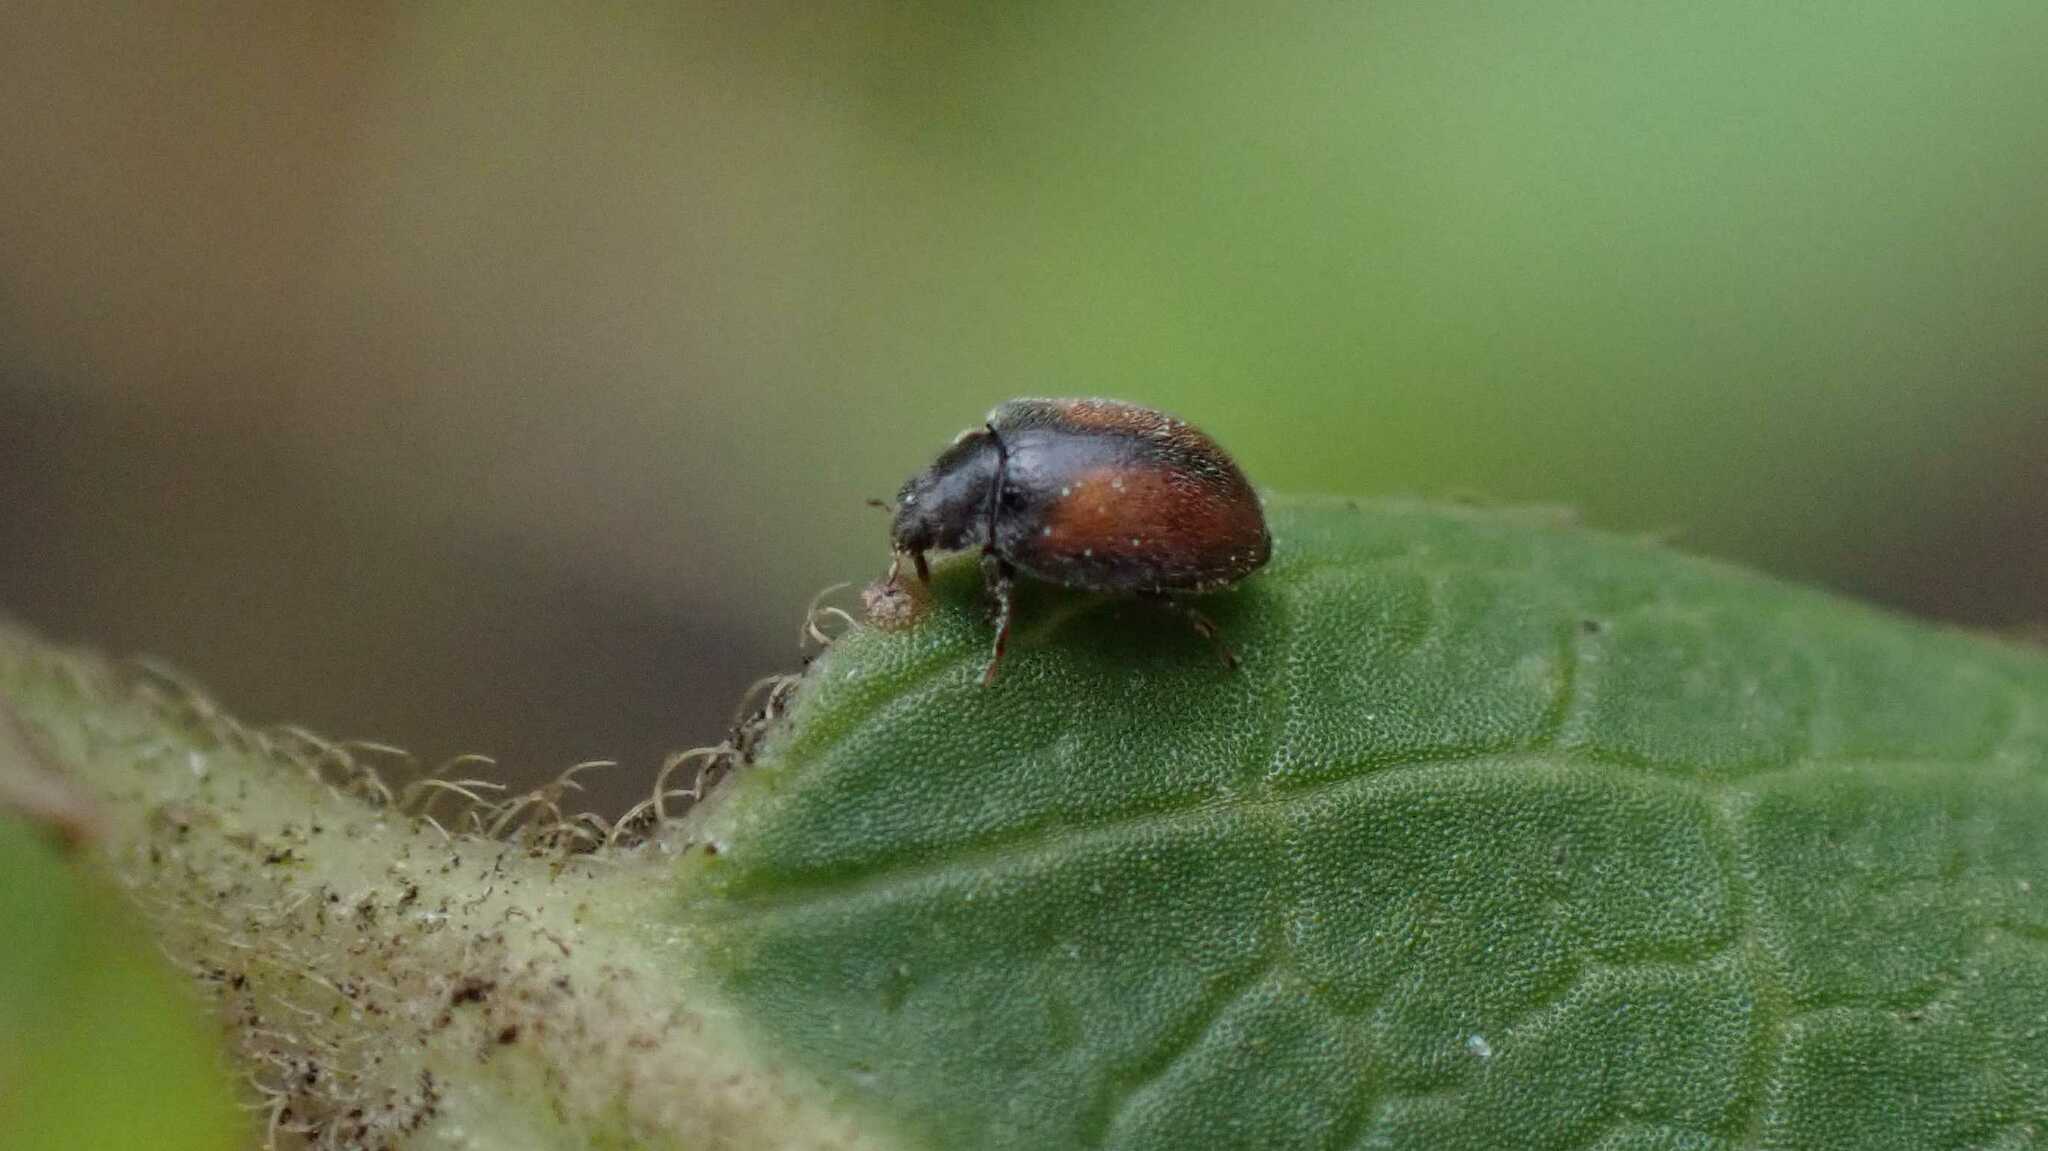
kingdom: Animalia
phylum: Arthropoda
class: Insecta
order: Coleoptera
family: Coccinellidae
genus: Scymnus
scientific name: Scymnus suturalis
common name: Ladybird beetle
